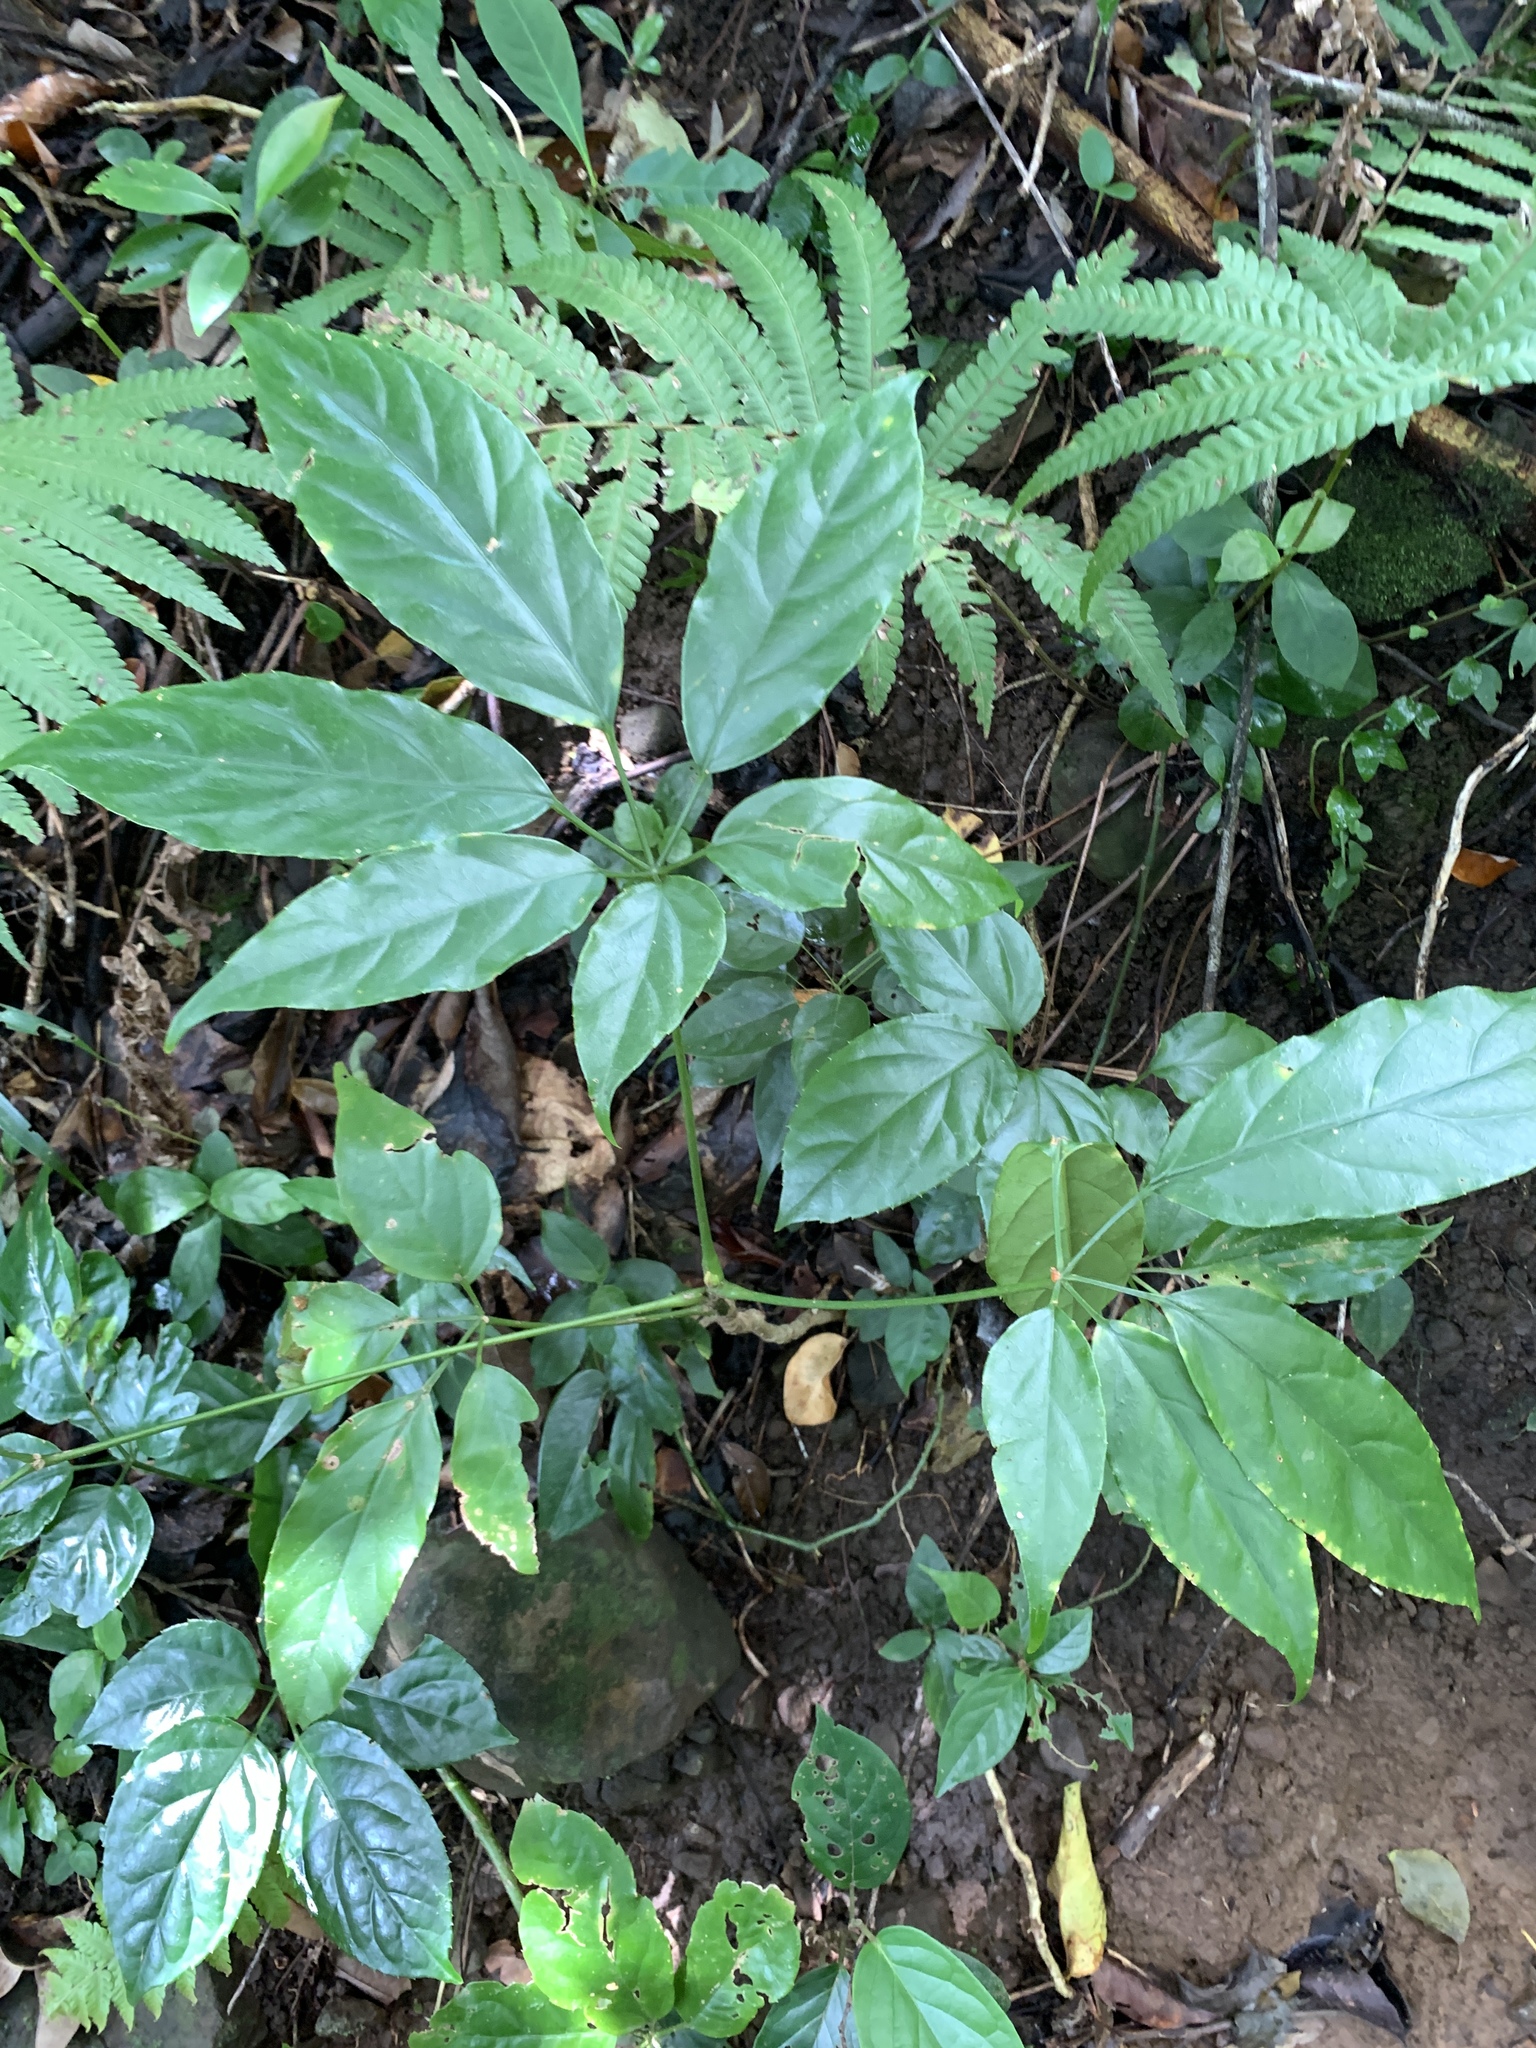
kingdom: Plantae
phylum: Tracheophyta
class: Magnoliopsida
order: Apiales
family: Araliaceae
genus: Heptapleurum
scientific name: Heptapleurum heptaphyllum
